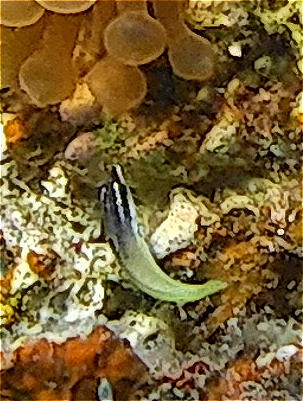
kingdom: Animalia
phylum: Chordata
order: Perciformes
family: Labridae
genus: Gomphosus
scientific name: Gomphosus klunzingeri
